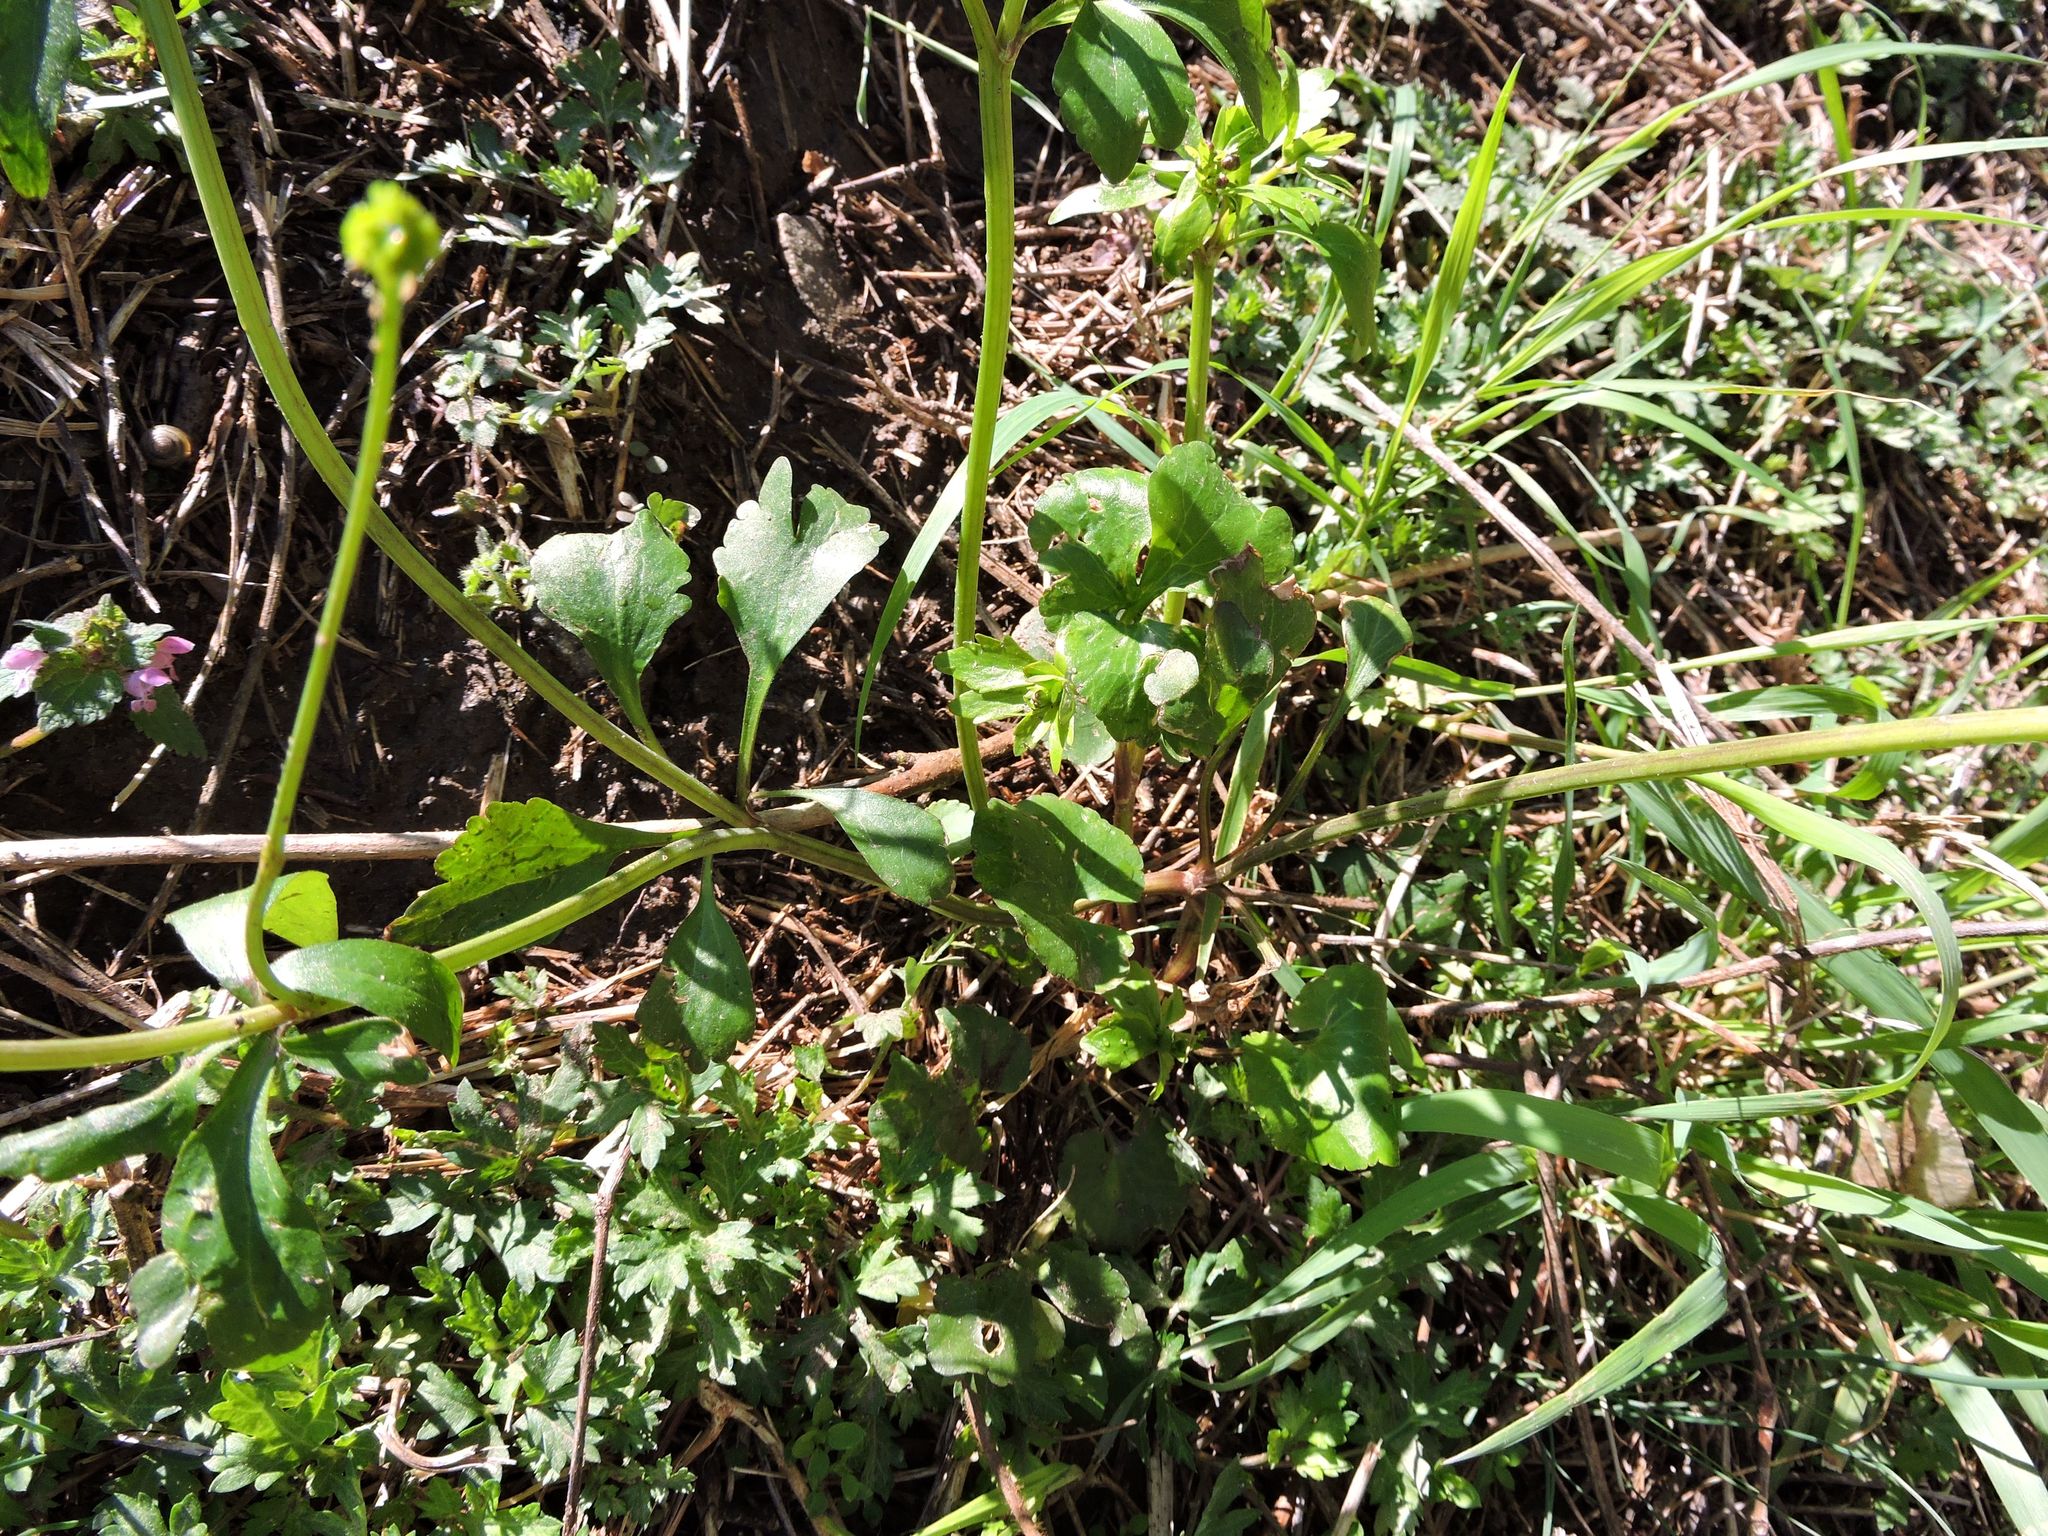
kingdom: Plantae
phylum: Tracheophyta
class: Magnoliopsida
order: Ranunculales
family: Ranunculaceae
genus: Ranunculus
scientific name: Ranunculus abortivus
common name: Early wood buttercup
